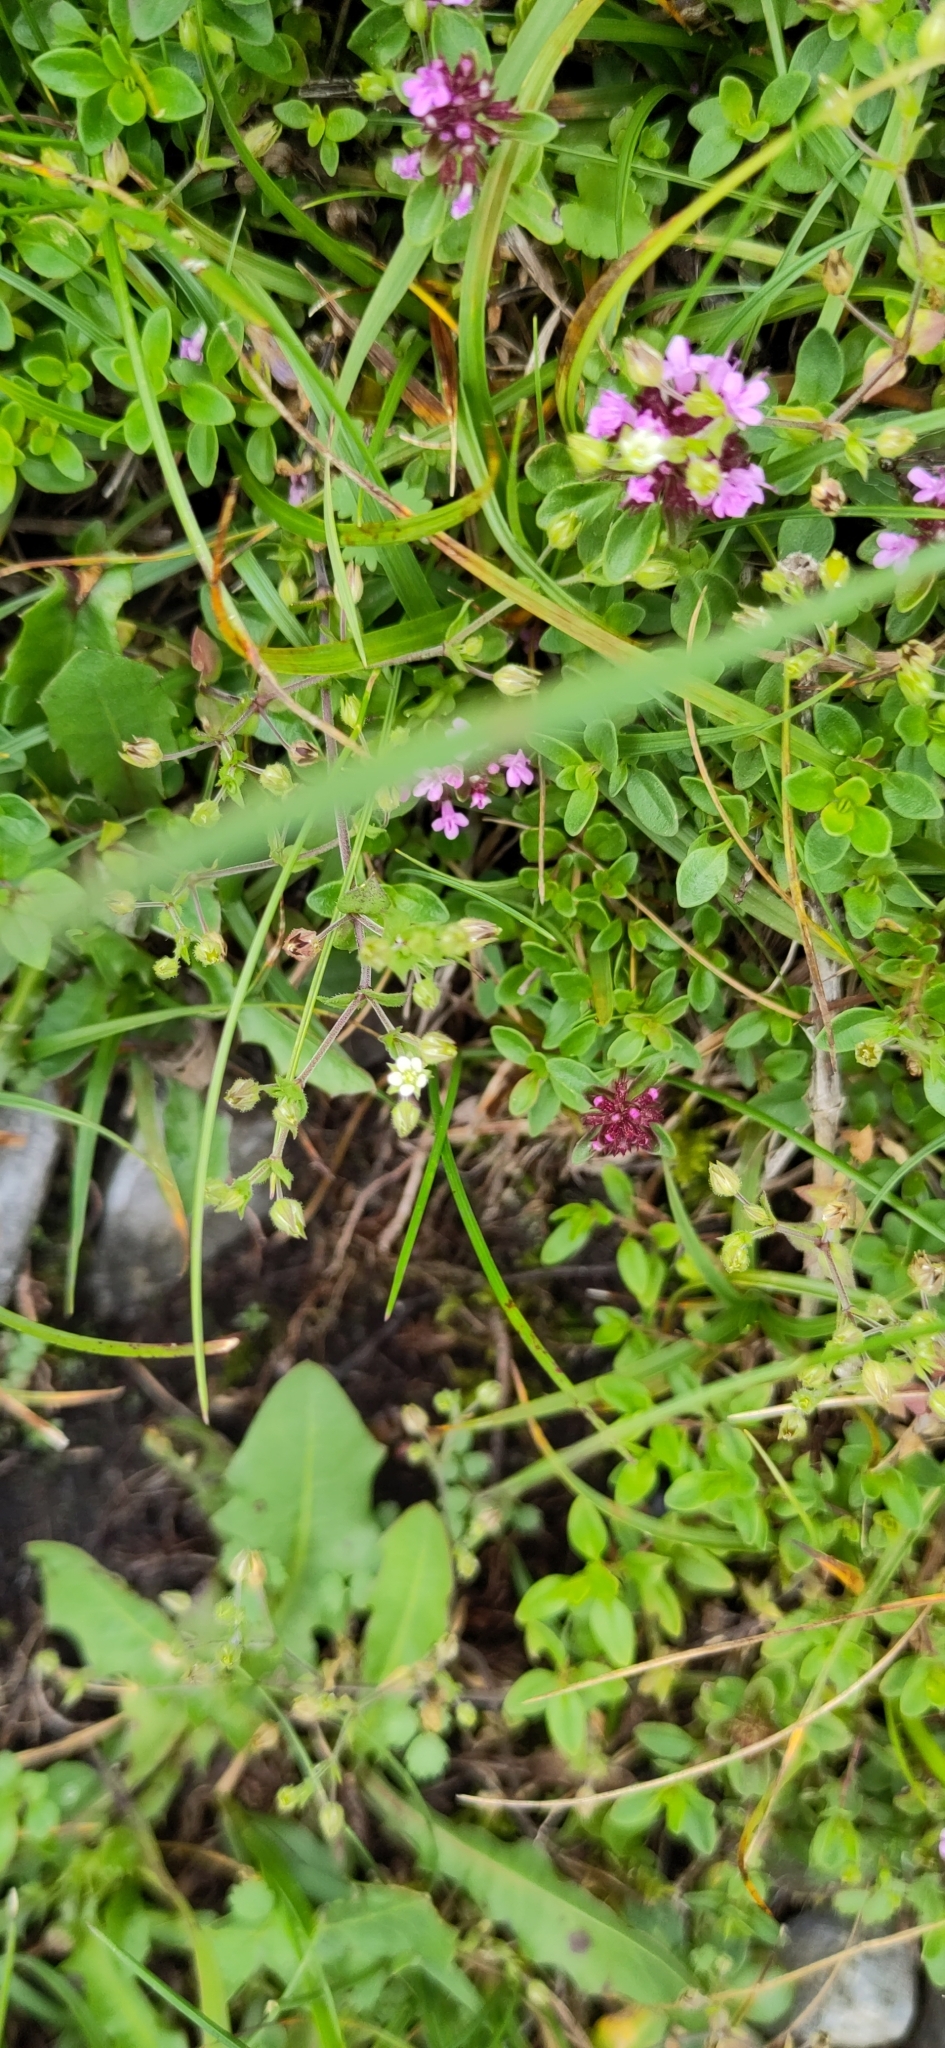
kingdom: Plantae
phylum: Tracheophyta
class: Magnoliopsida
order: Caryophyllales
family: Caryophyllaceae
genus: Cerastium
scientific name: Cerastium glutinosum
